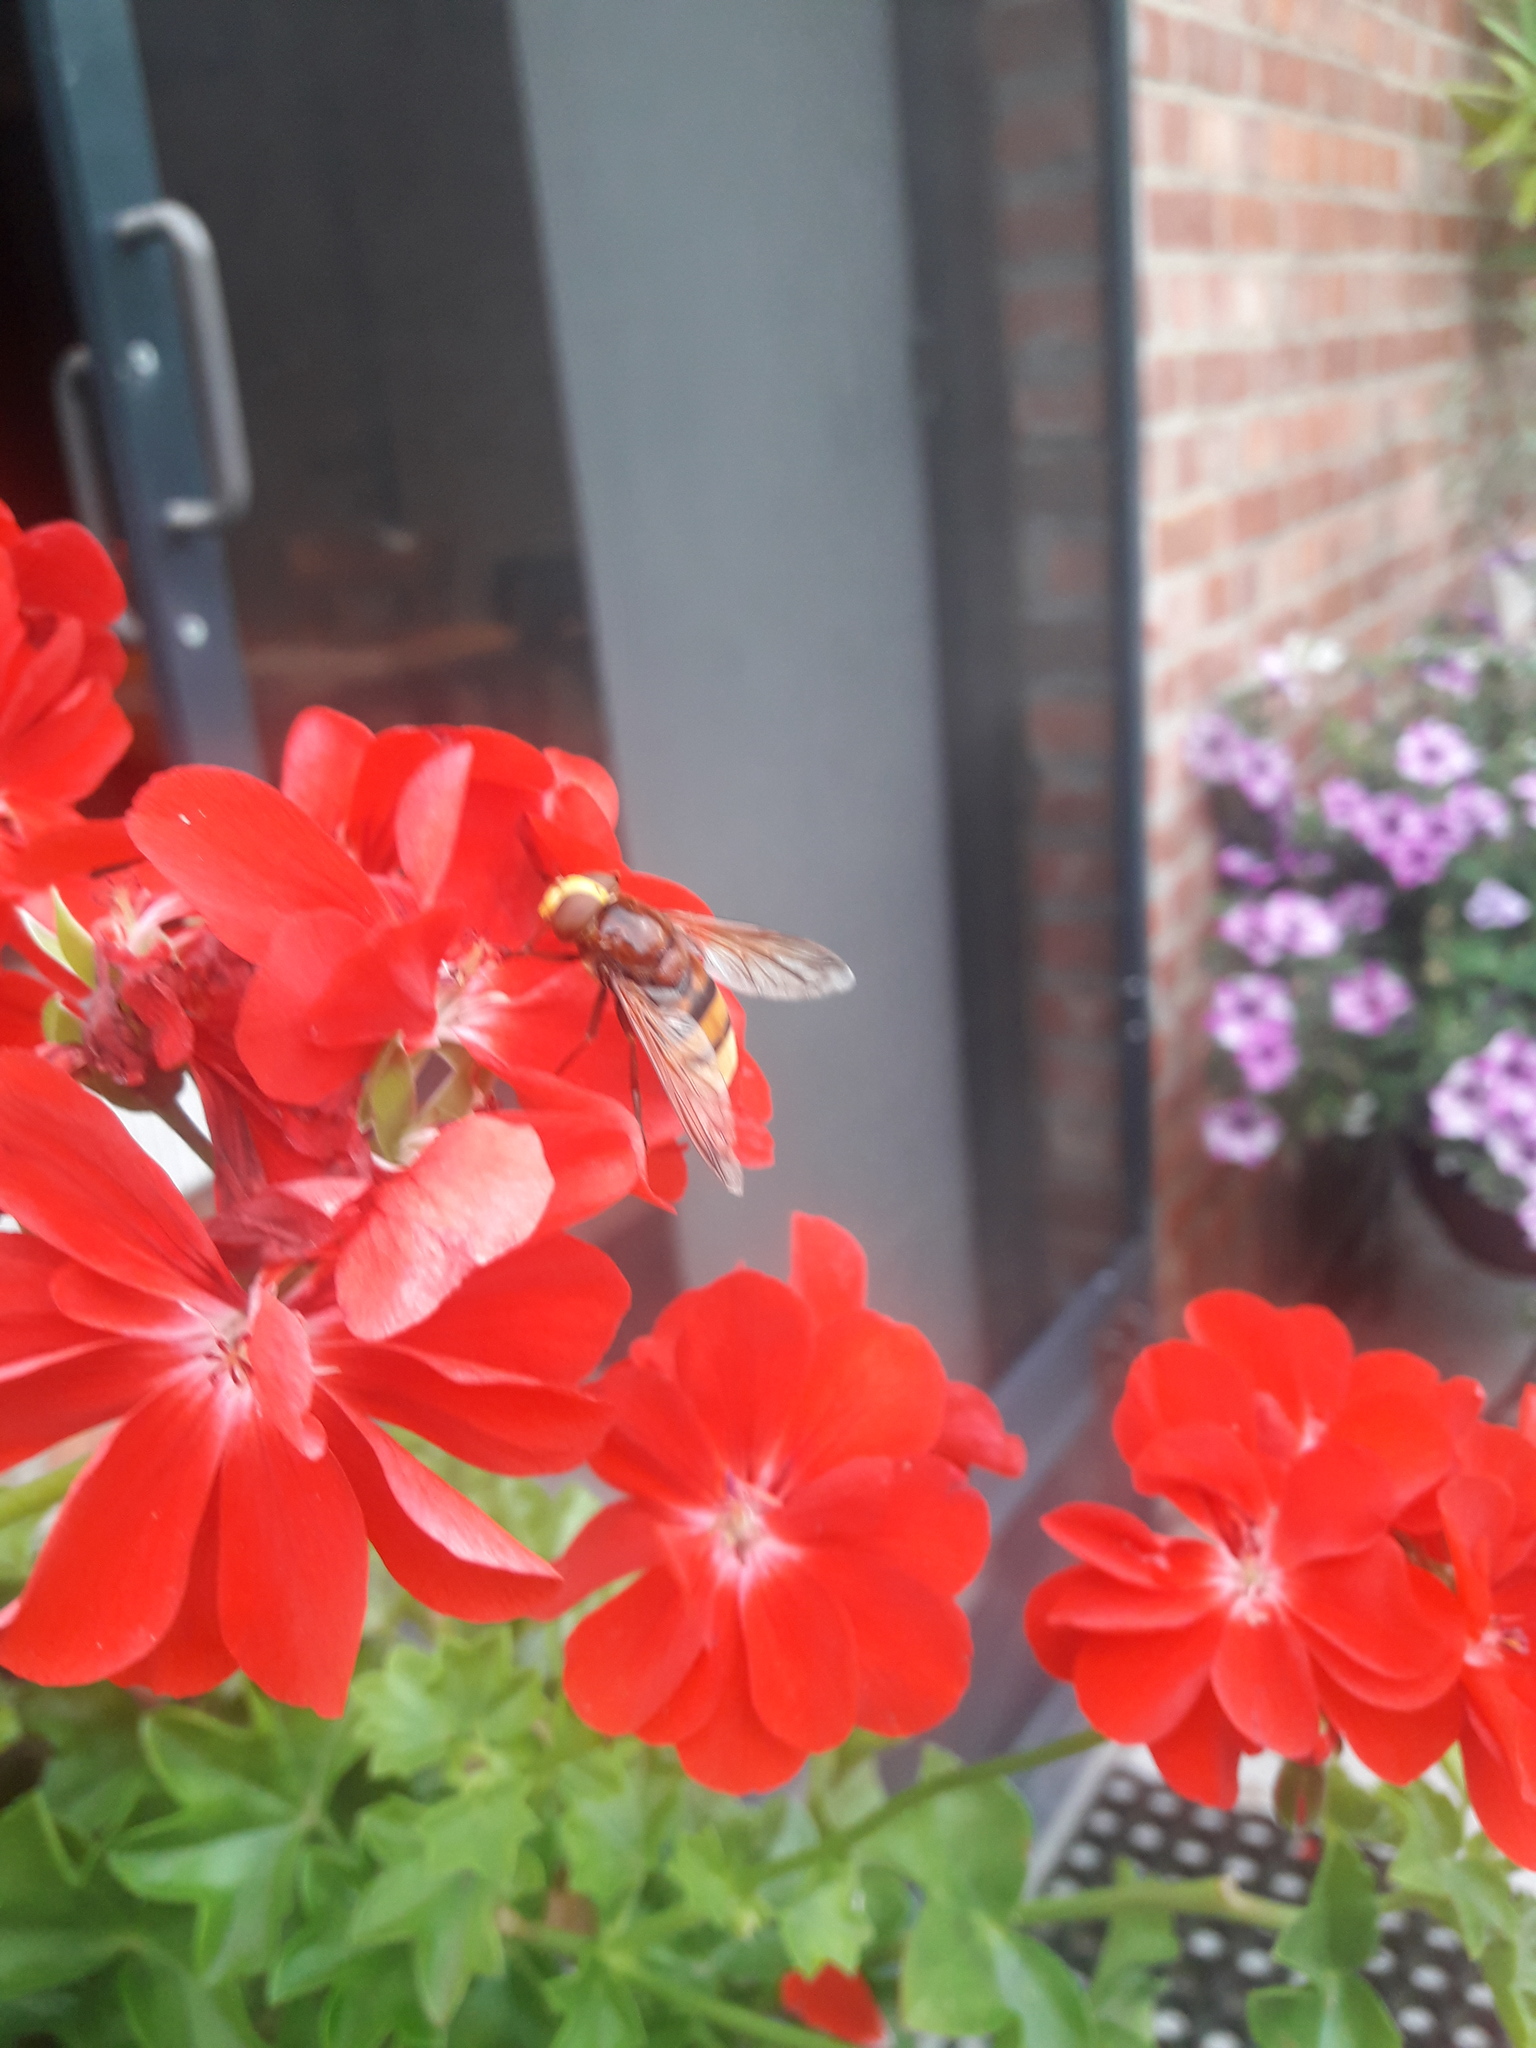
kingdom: Animalia
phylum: Arthropoda
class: Insecta
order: Diptera
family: Syrphidae
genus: Volucella
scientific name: Volucella zonaria
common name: Hornet hoverfly
